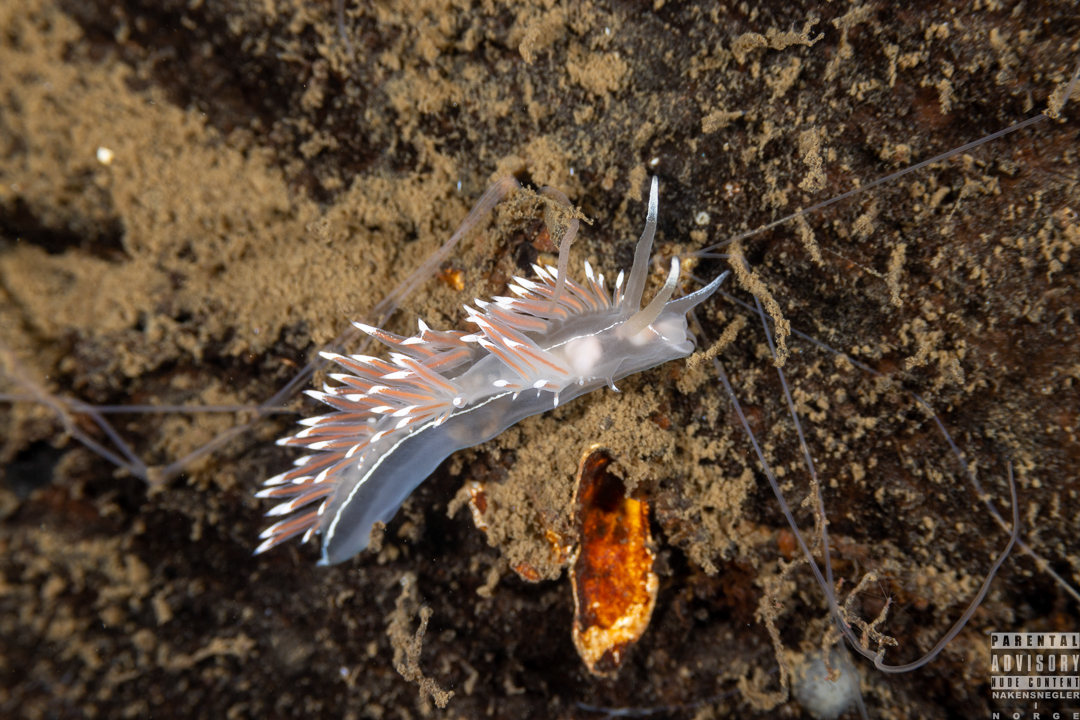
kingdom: Animalia
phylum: Mollusca
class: Gastropoda
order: Nudibranchia
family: Coryphellidae
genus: Coryphella
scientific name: Coryphella lineata
